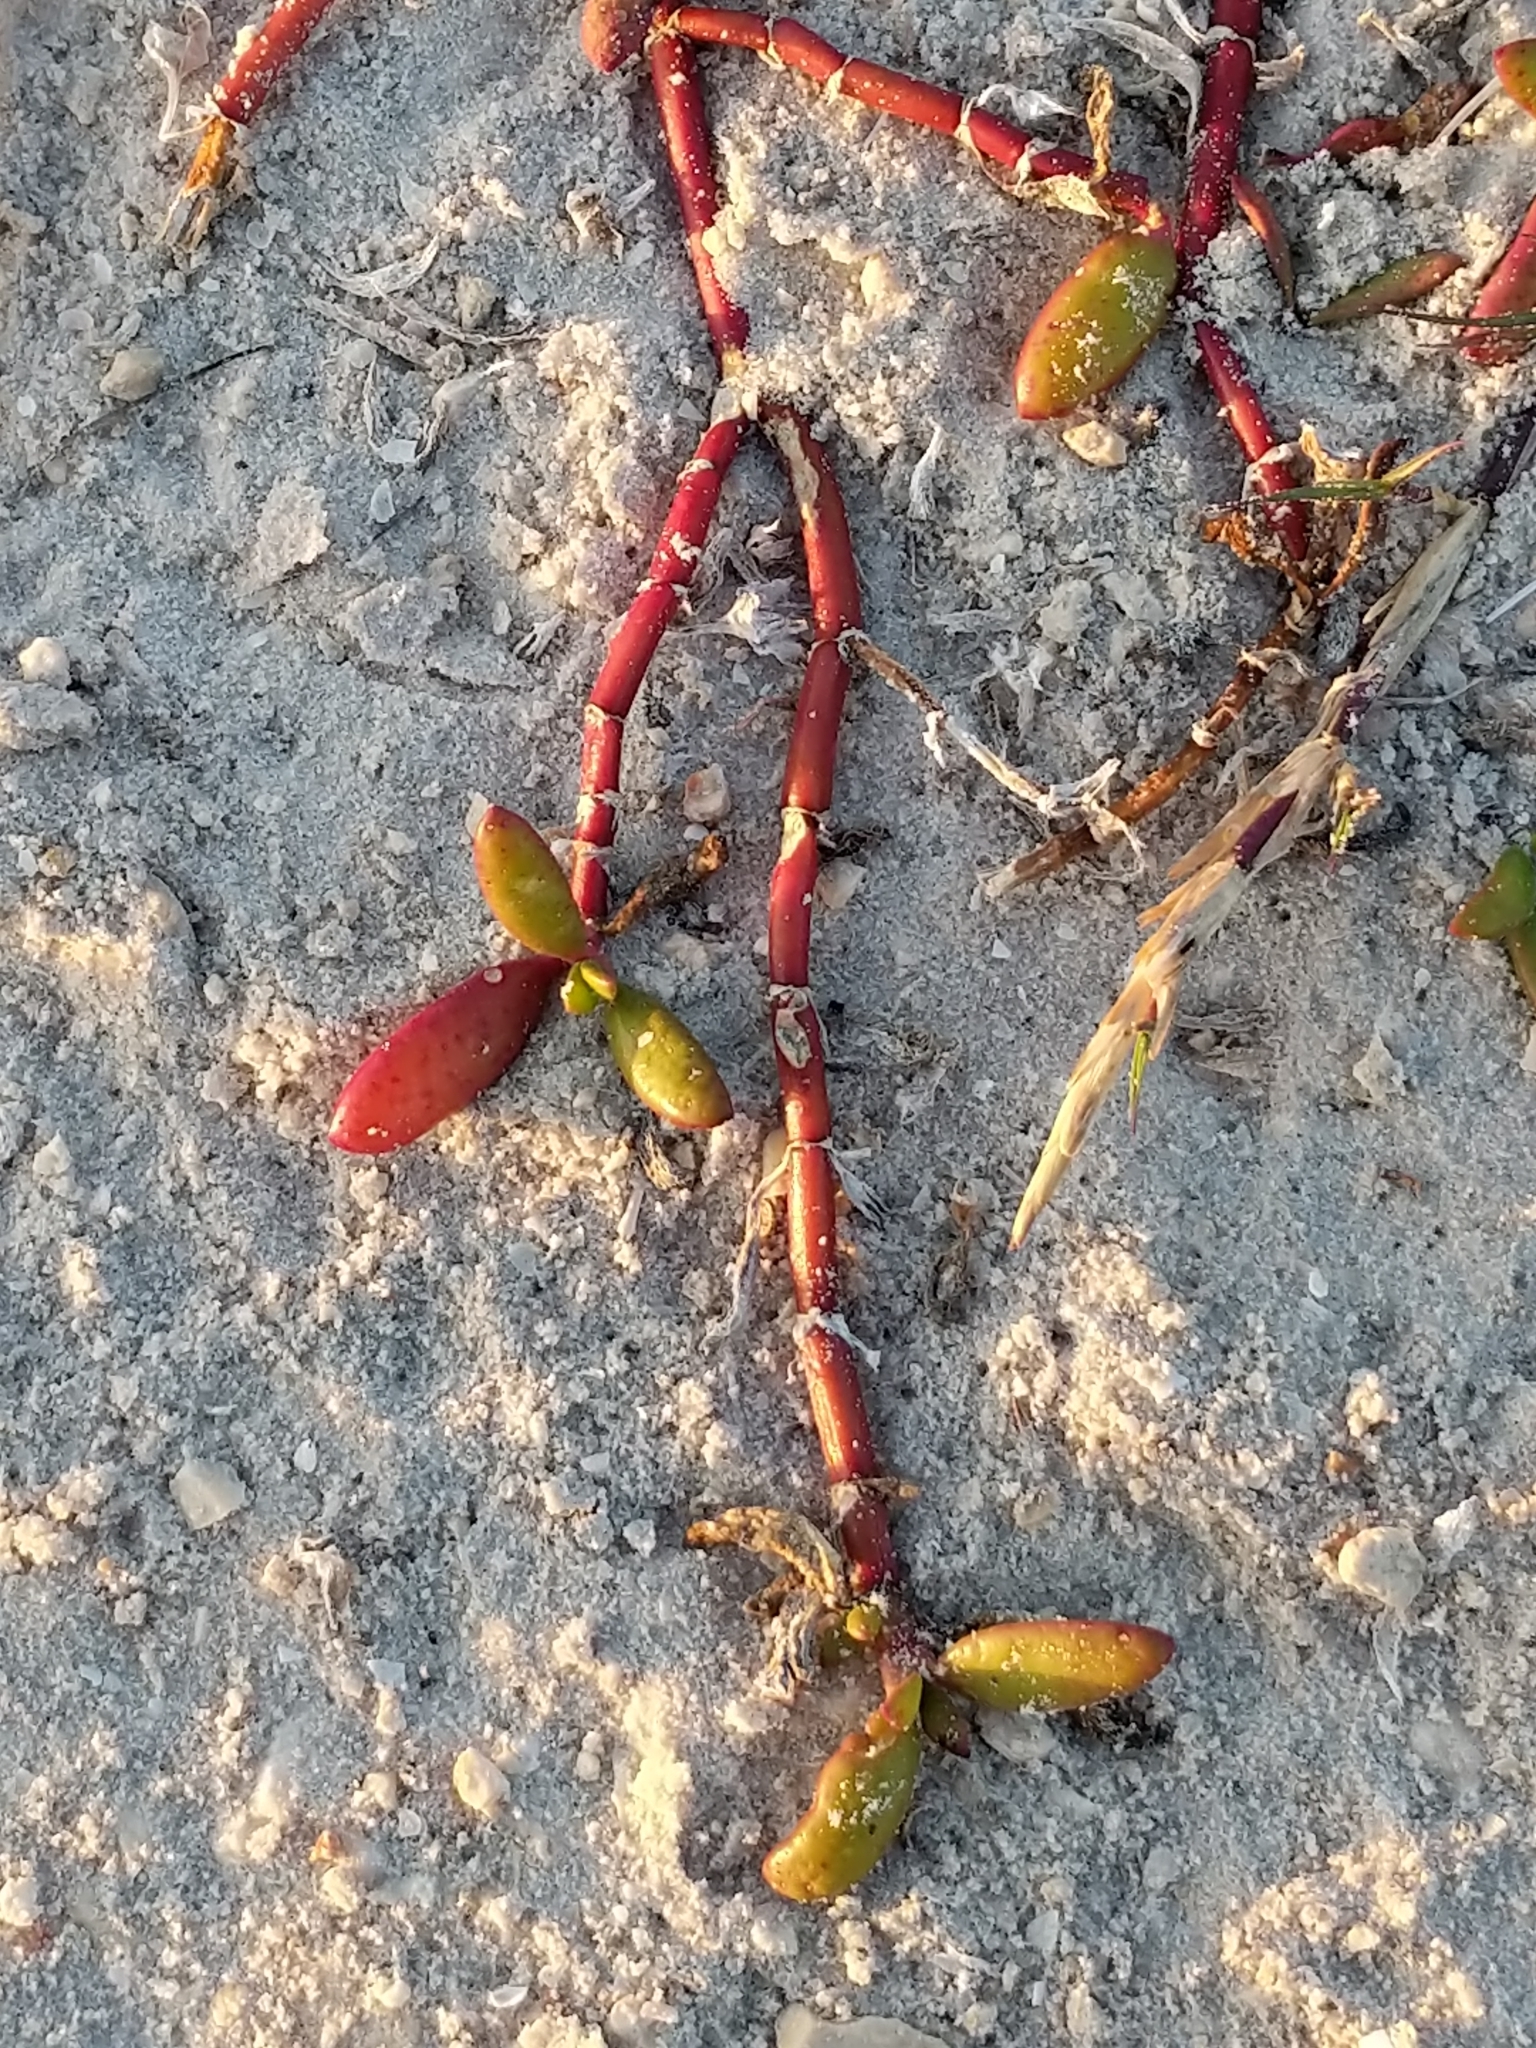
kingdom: Plantae
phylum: Tracheophyta
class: Magnoliopsida
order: Caryophyllales
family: Aizoaceae
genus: Sesuvium
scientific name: Sesuvium portulacastrum
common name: Sea-purslane
